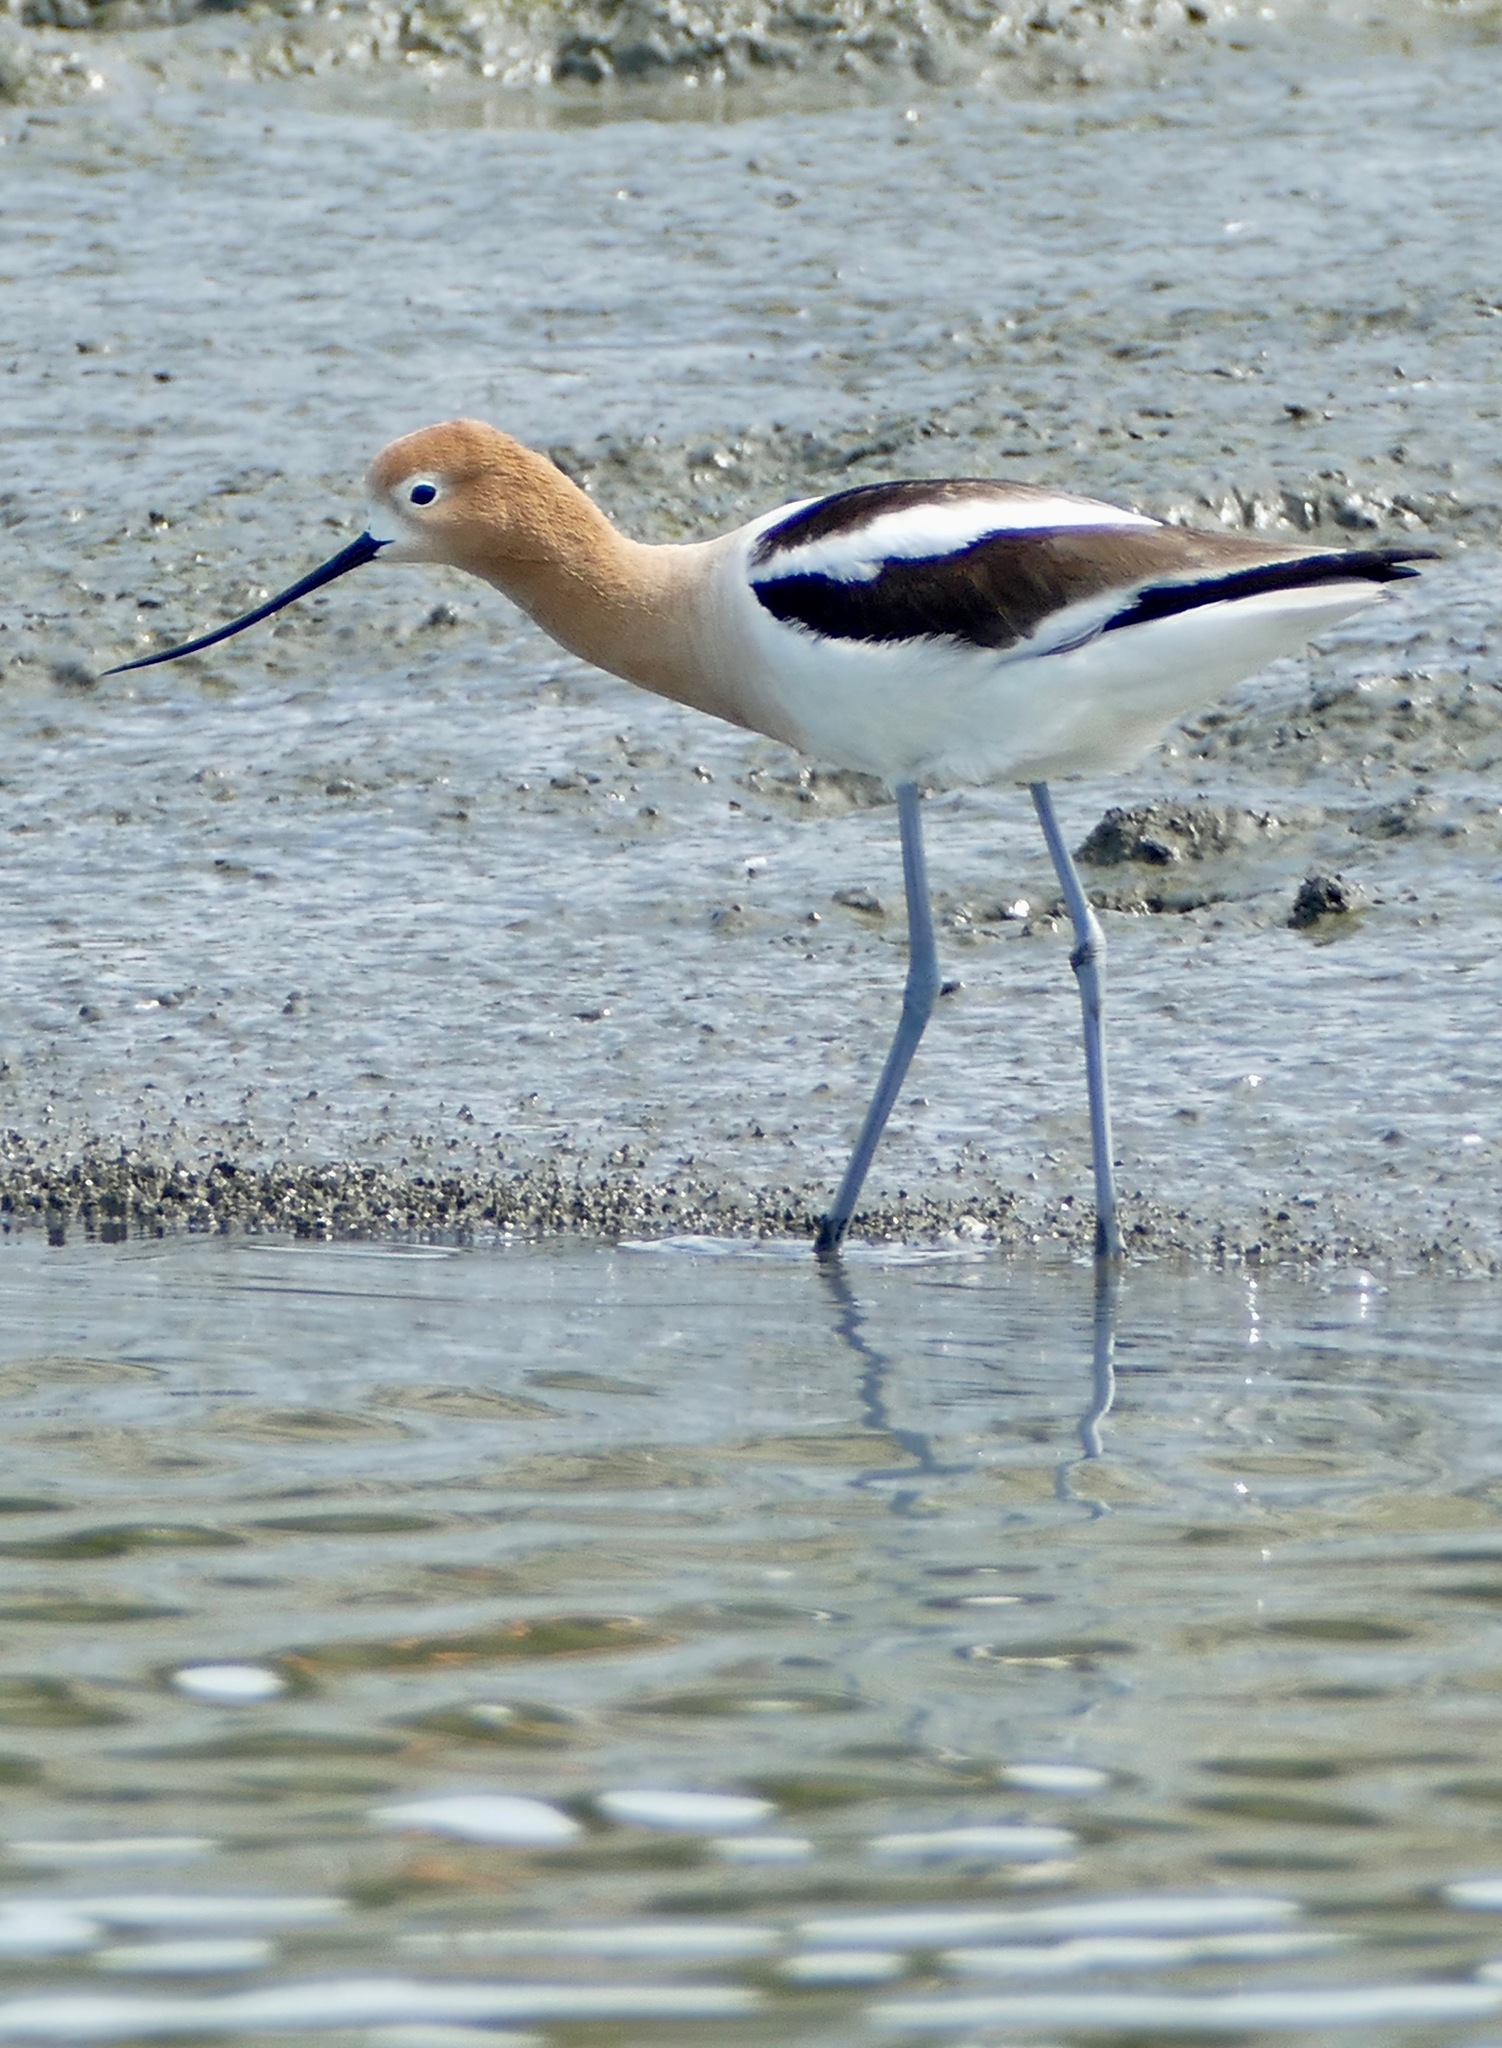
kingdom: Animalia
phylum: Chordata
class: Aves
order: Charadriiformes
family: Recurvirostridae
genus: Recurvirostra
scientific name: Recurvirostra americana
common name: American avocet
